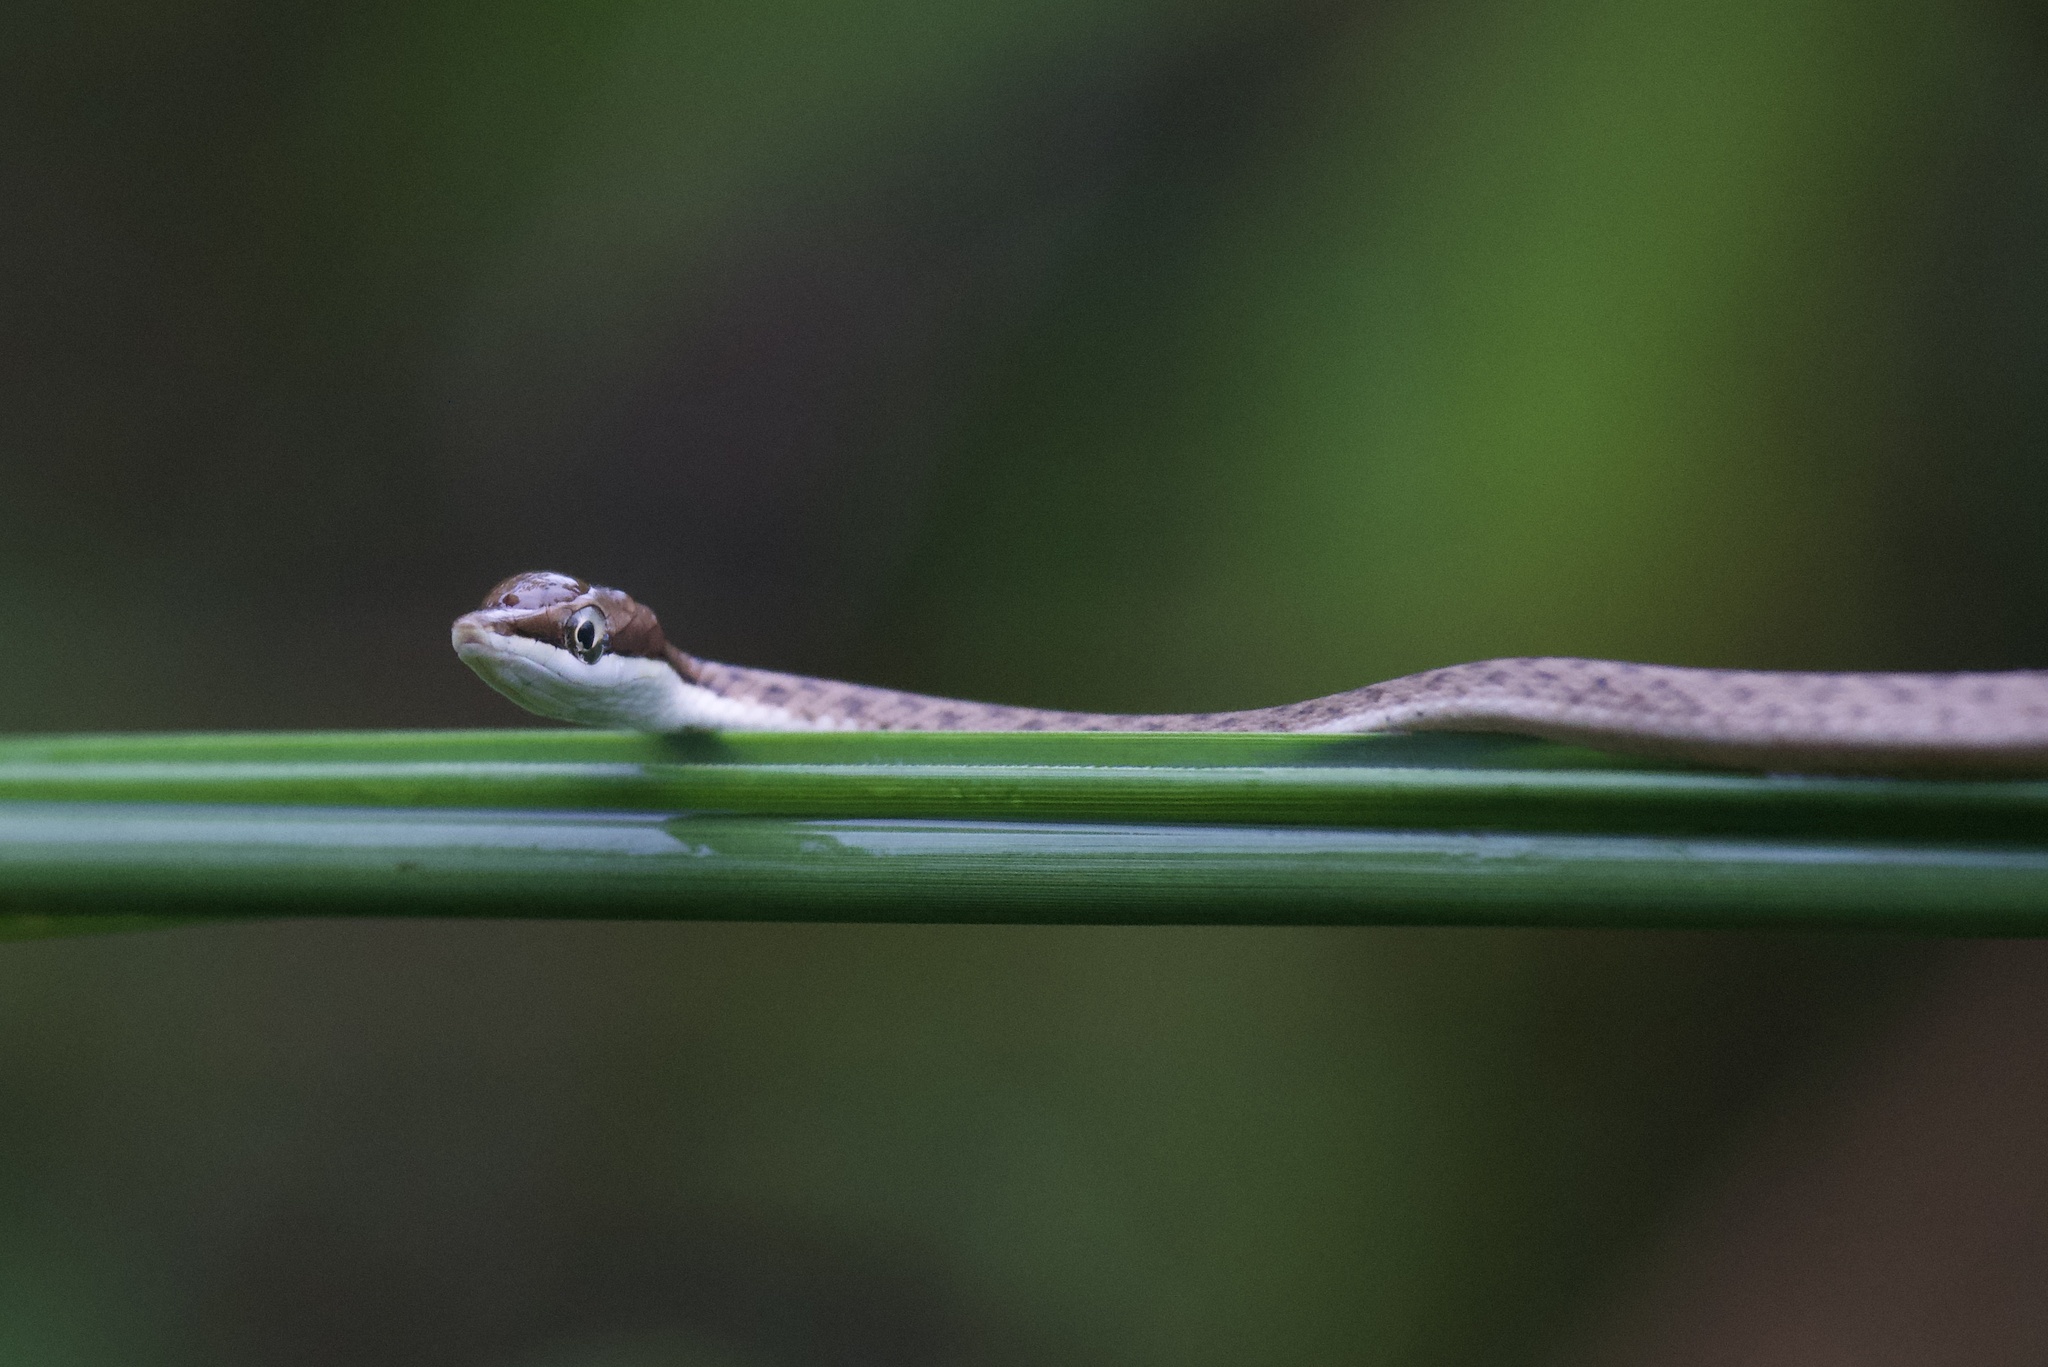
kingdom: Animalia
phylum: Chordata
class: Squamata
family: Colubridae
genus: Oxybelis
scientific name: Oxybelis koehleri
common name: Köhler’s vine snake
